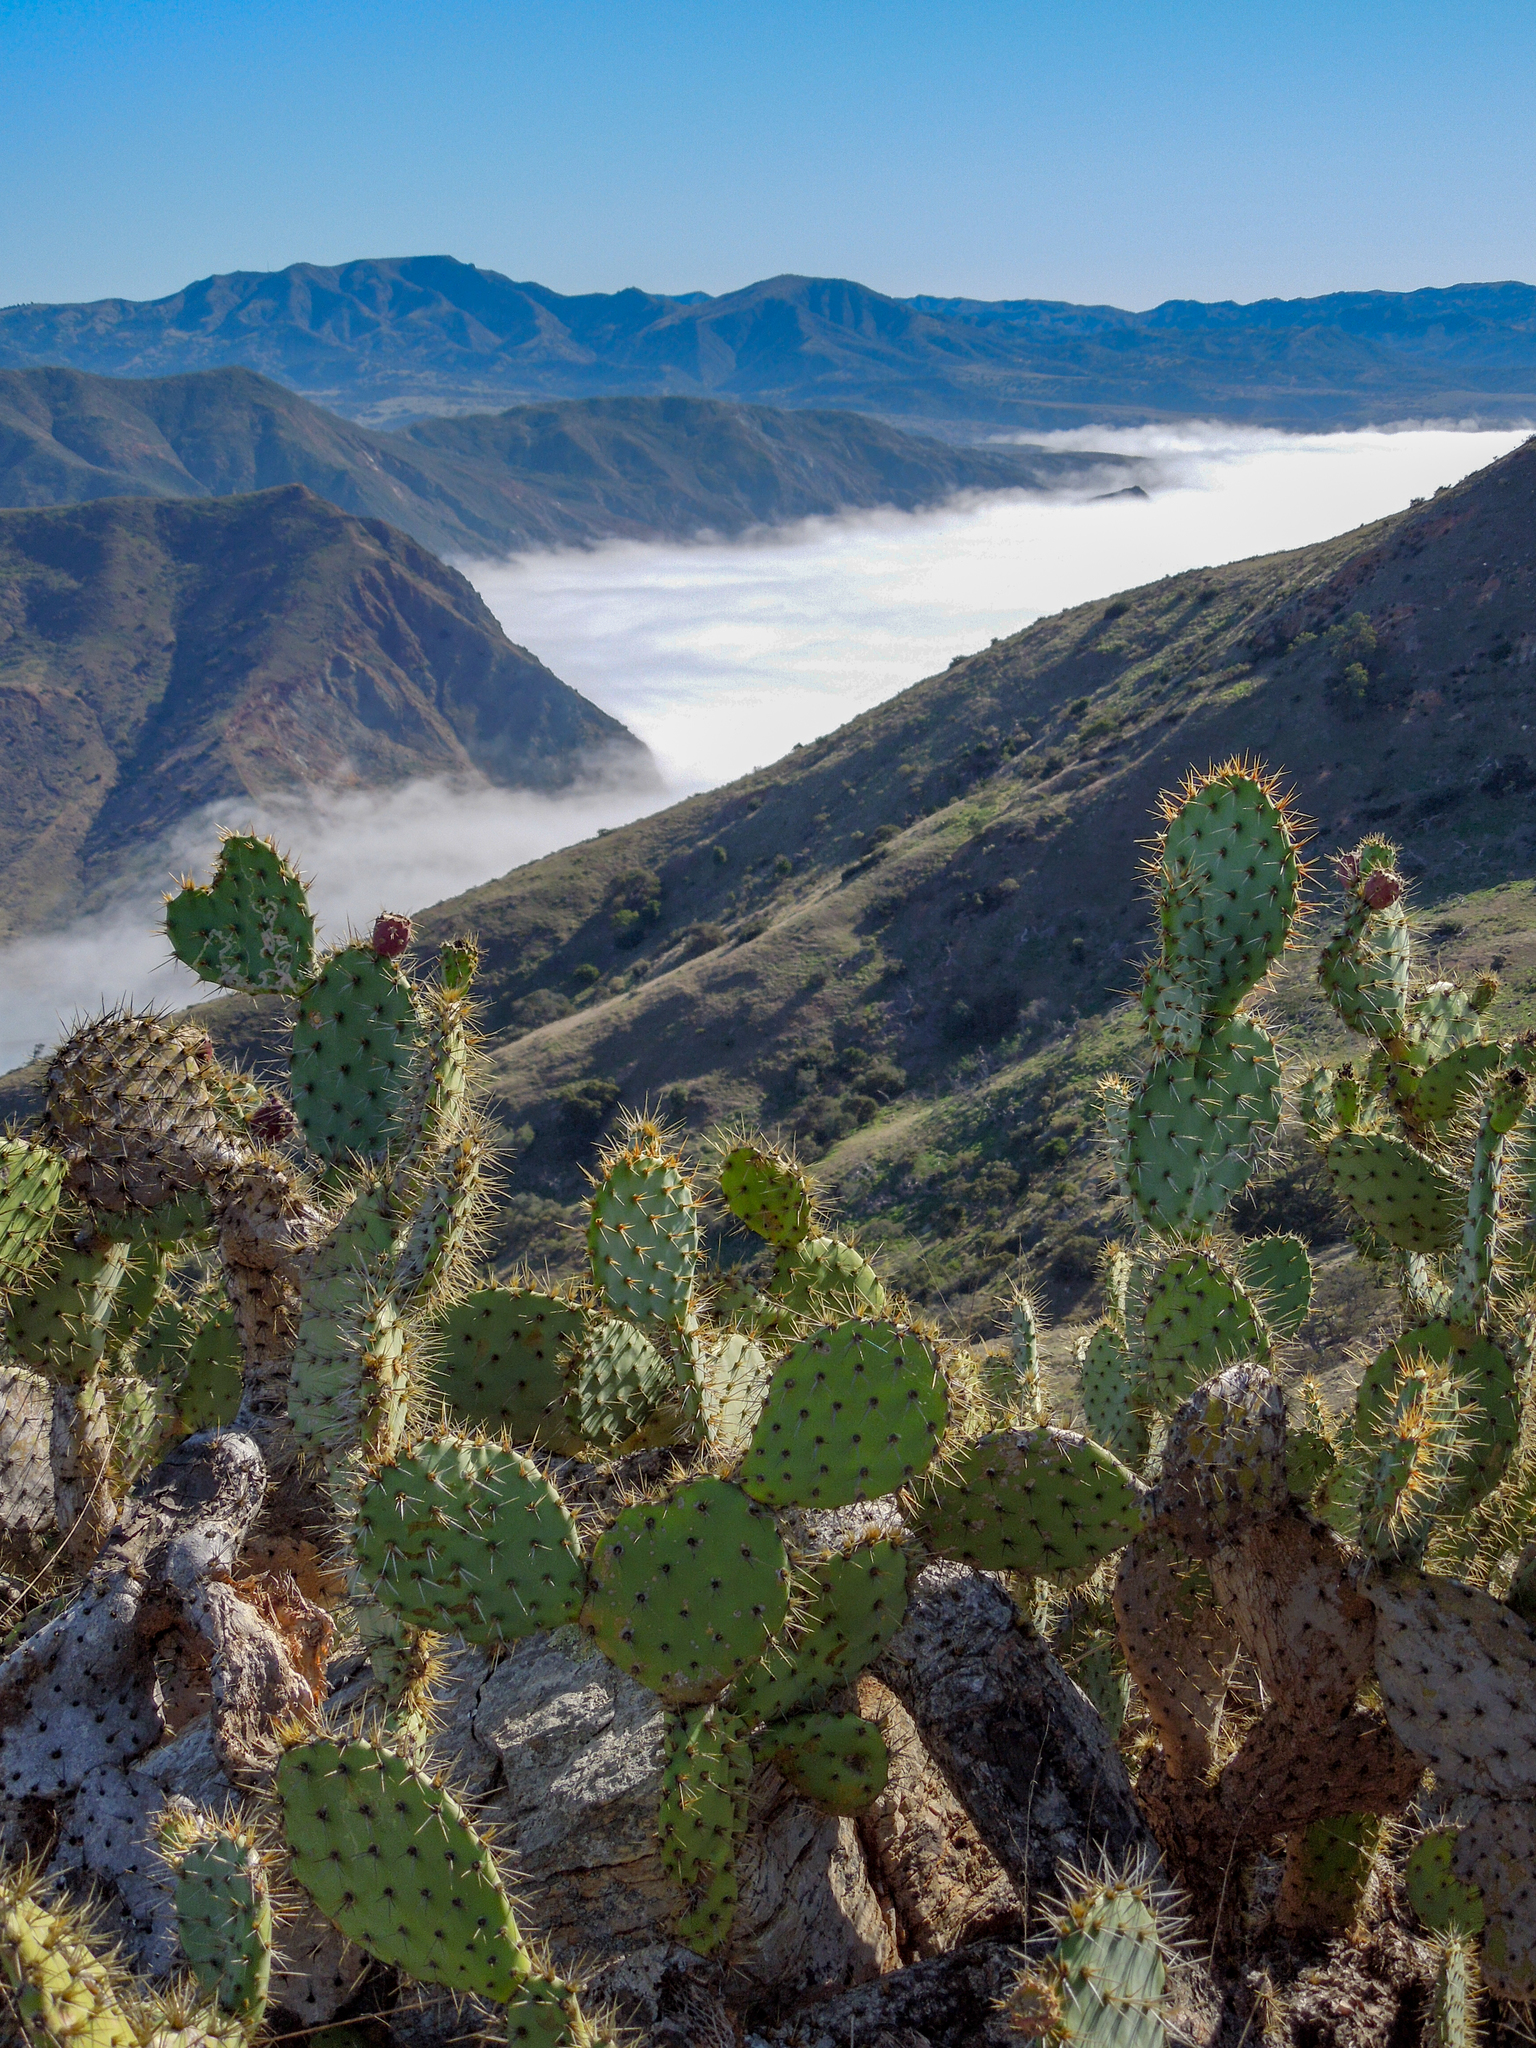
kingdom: Plantae
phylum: Tracheophyta
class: Magnoliopsida
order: Caryophyllales
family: Cactaceae
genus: Opuntia
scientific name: Opuntia oricola
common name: Chaparral prickly-pear
